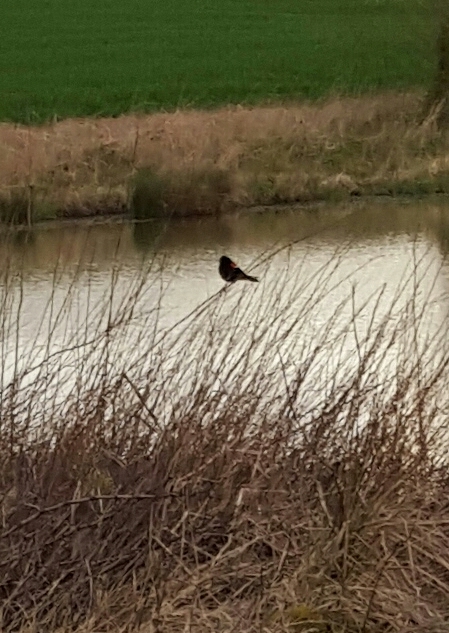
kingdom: Animalia
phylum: Chordata
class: Aves
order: Passeriformes
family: Icteridae
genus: Agelaius
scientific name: Agelaius phoeniceus
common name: Red-winged blackbird
